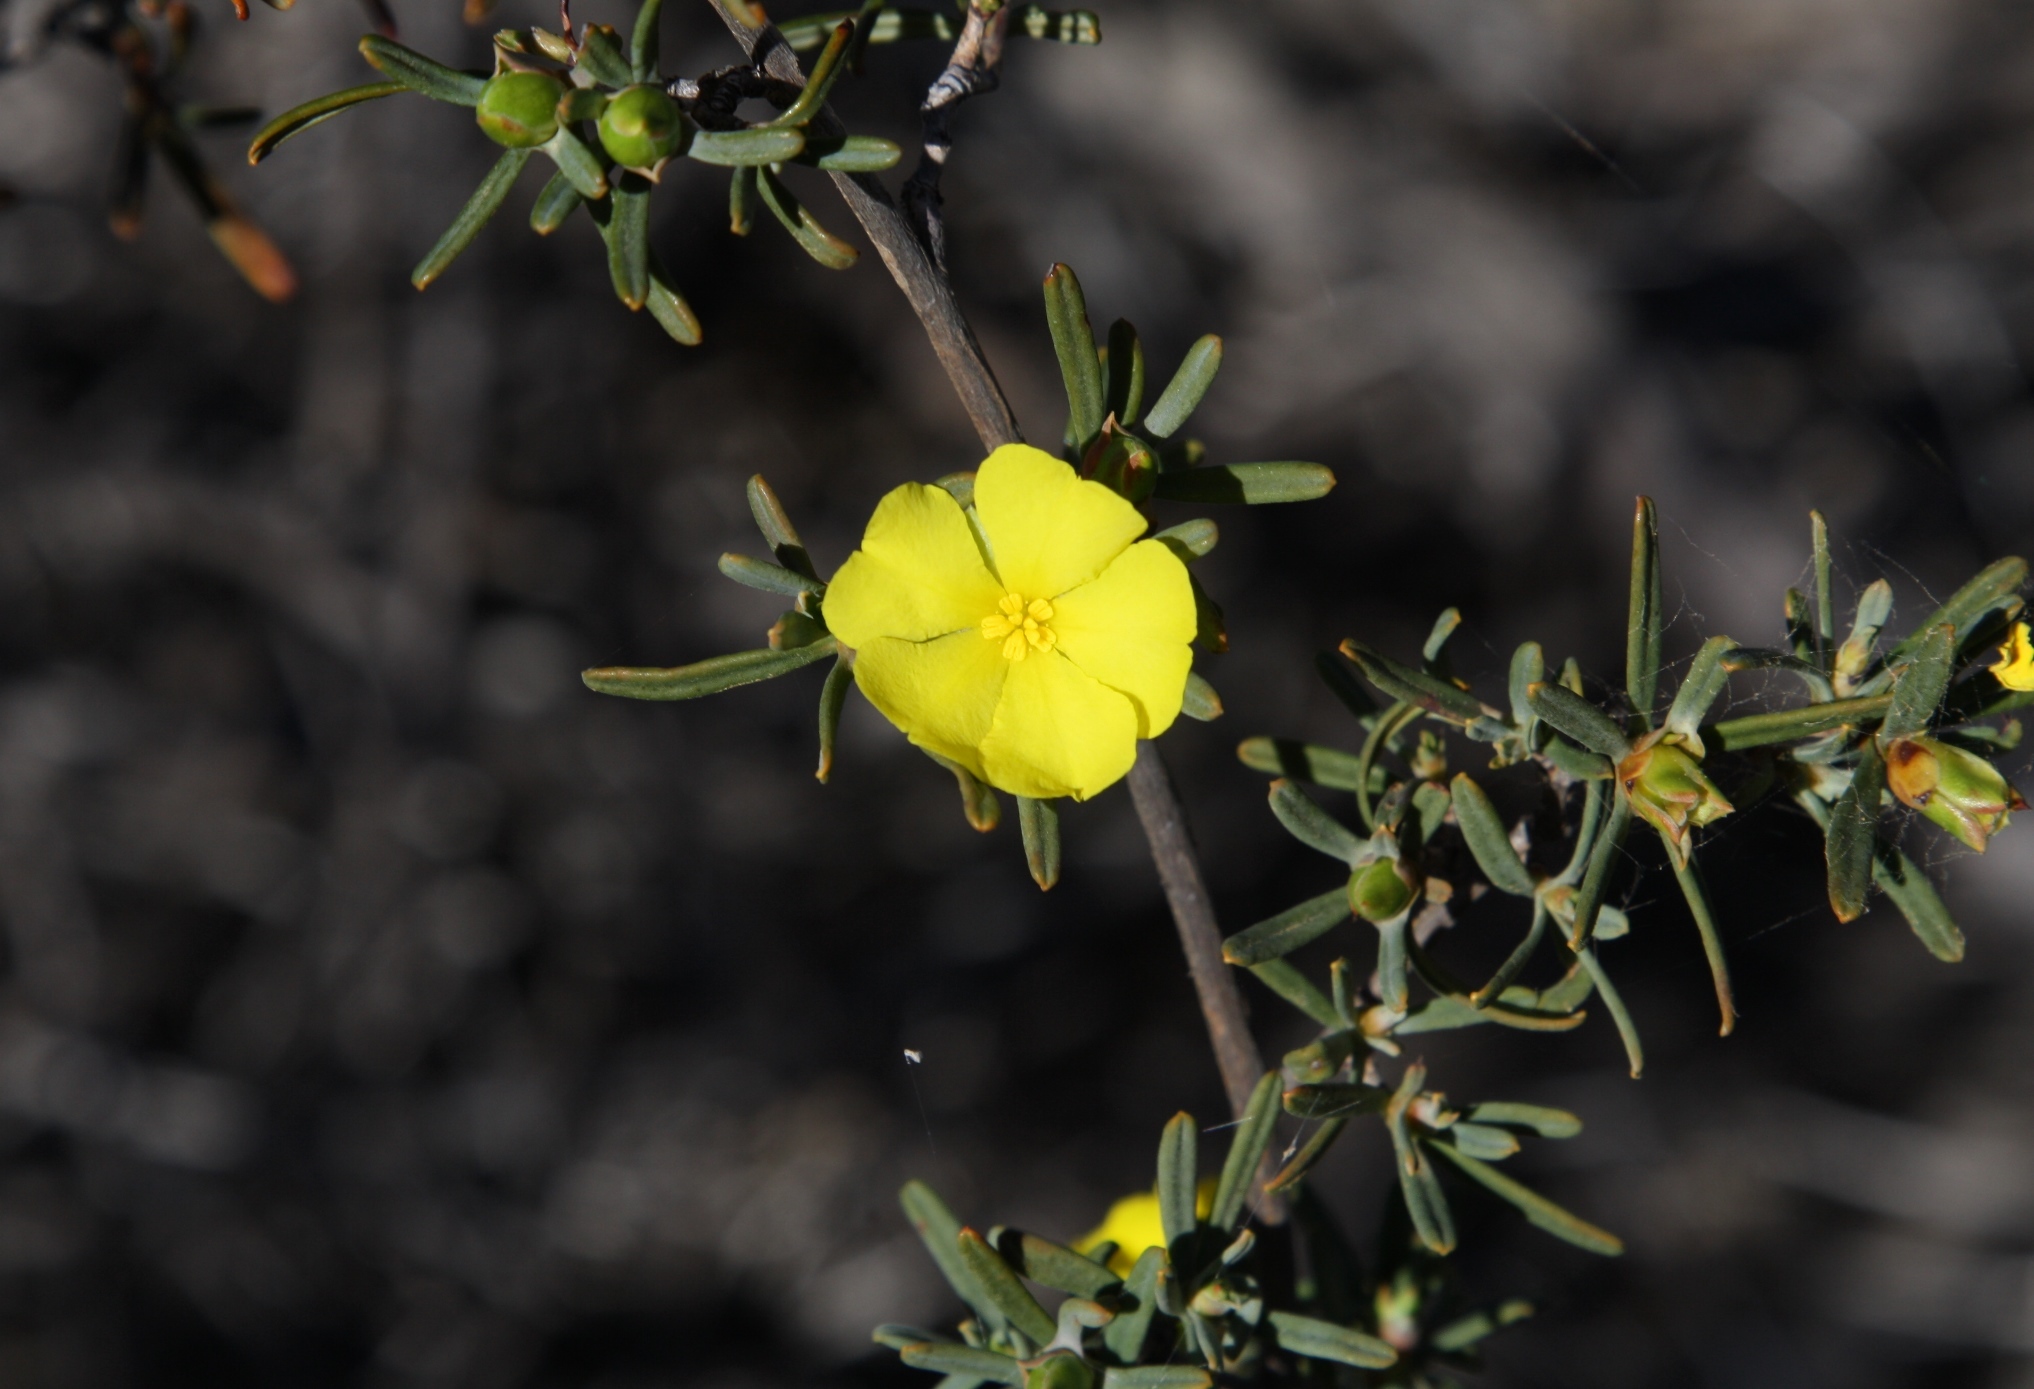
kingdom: Plantae
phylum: Tracheophyta
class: Magnoliopsida
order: Dilleniales
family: Dilleniaceae
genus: Hibbertia
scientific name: Hibbertia glabrisepala
